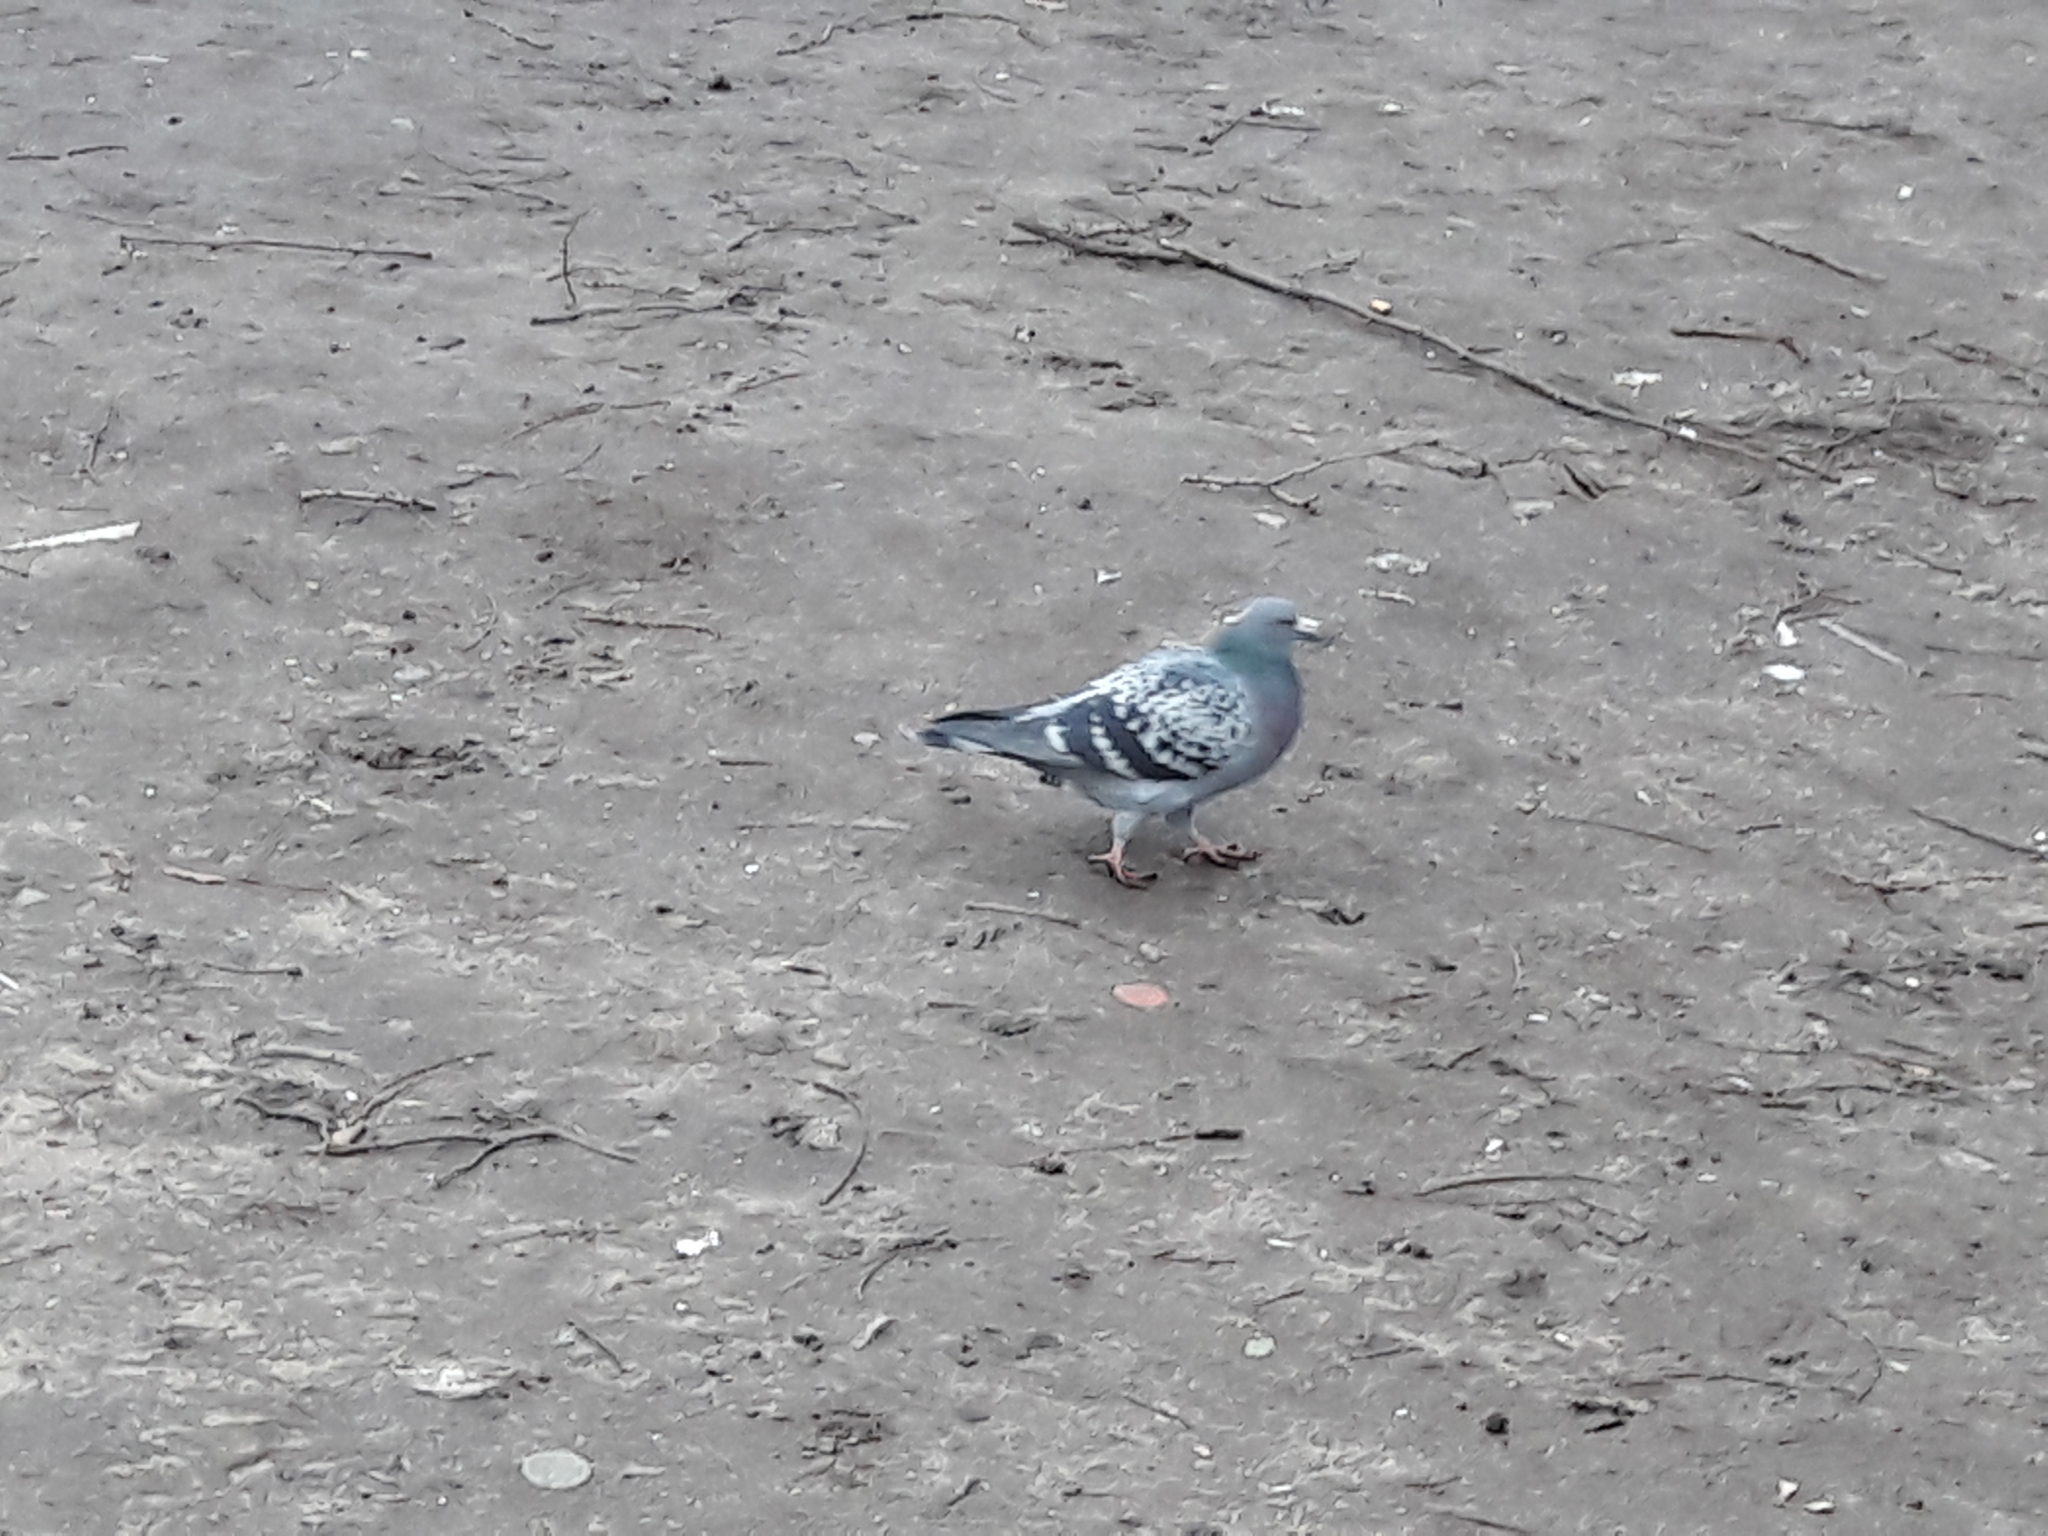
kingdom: Animalia
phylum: Chordata
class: Aves
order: Columbiformes
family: Columbidae
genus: Columba
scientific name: Columba livia
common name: Rock pigeon
